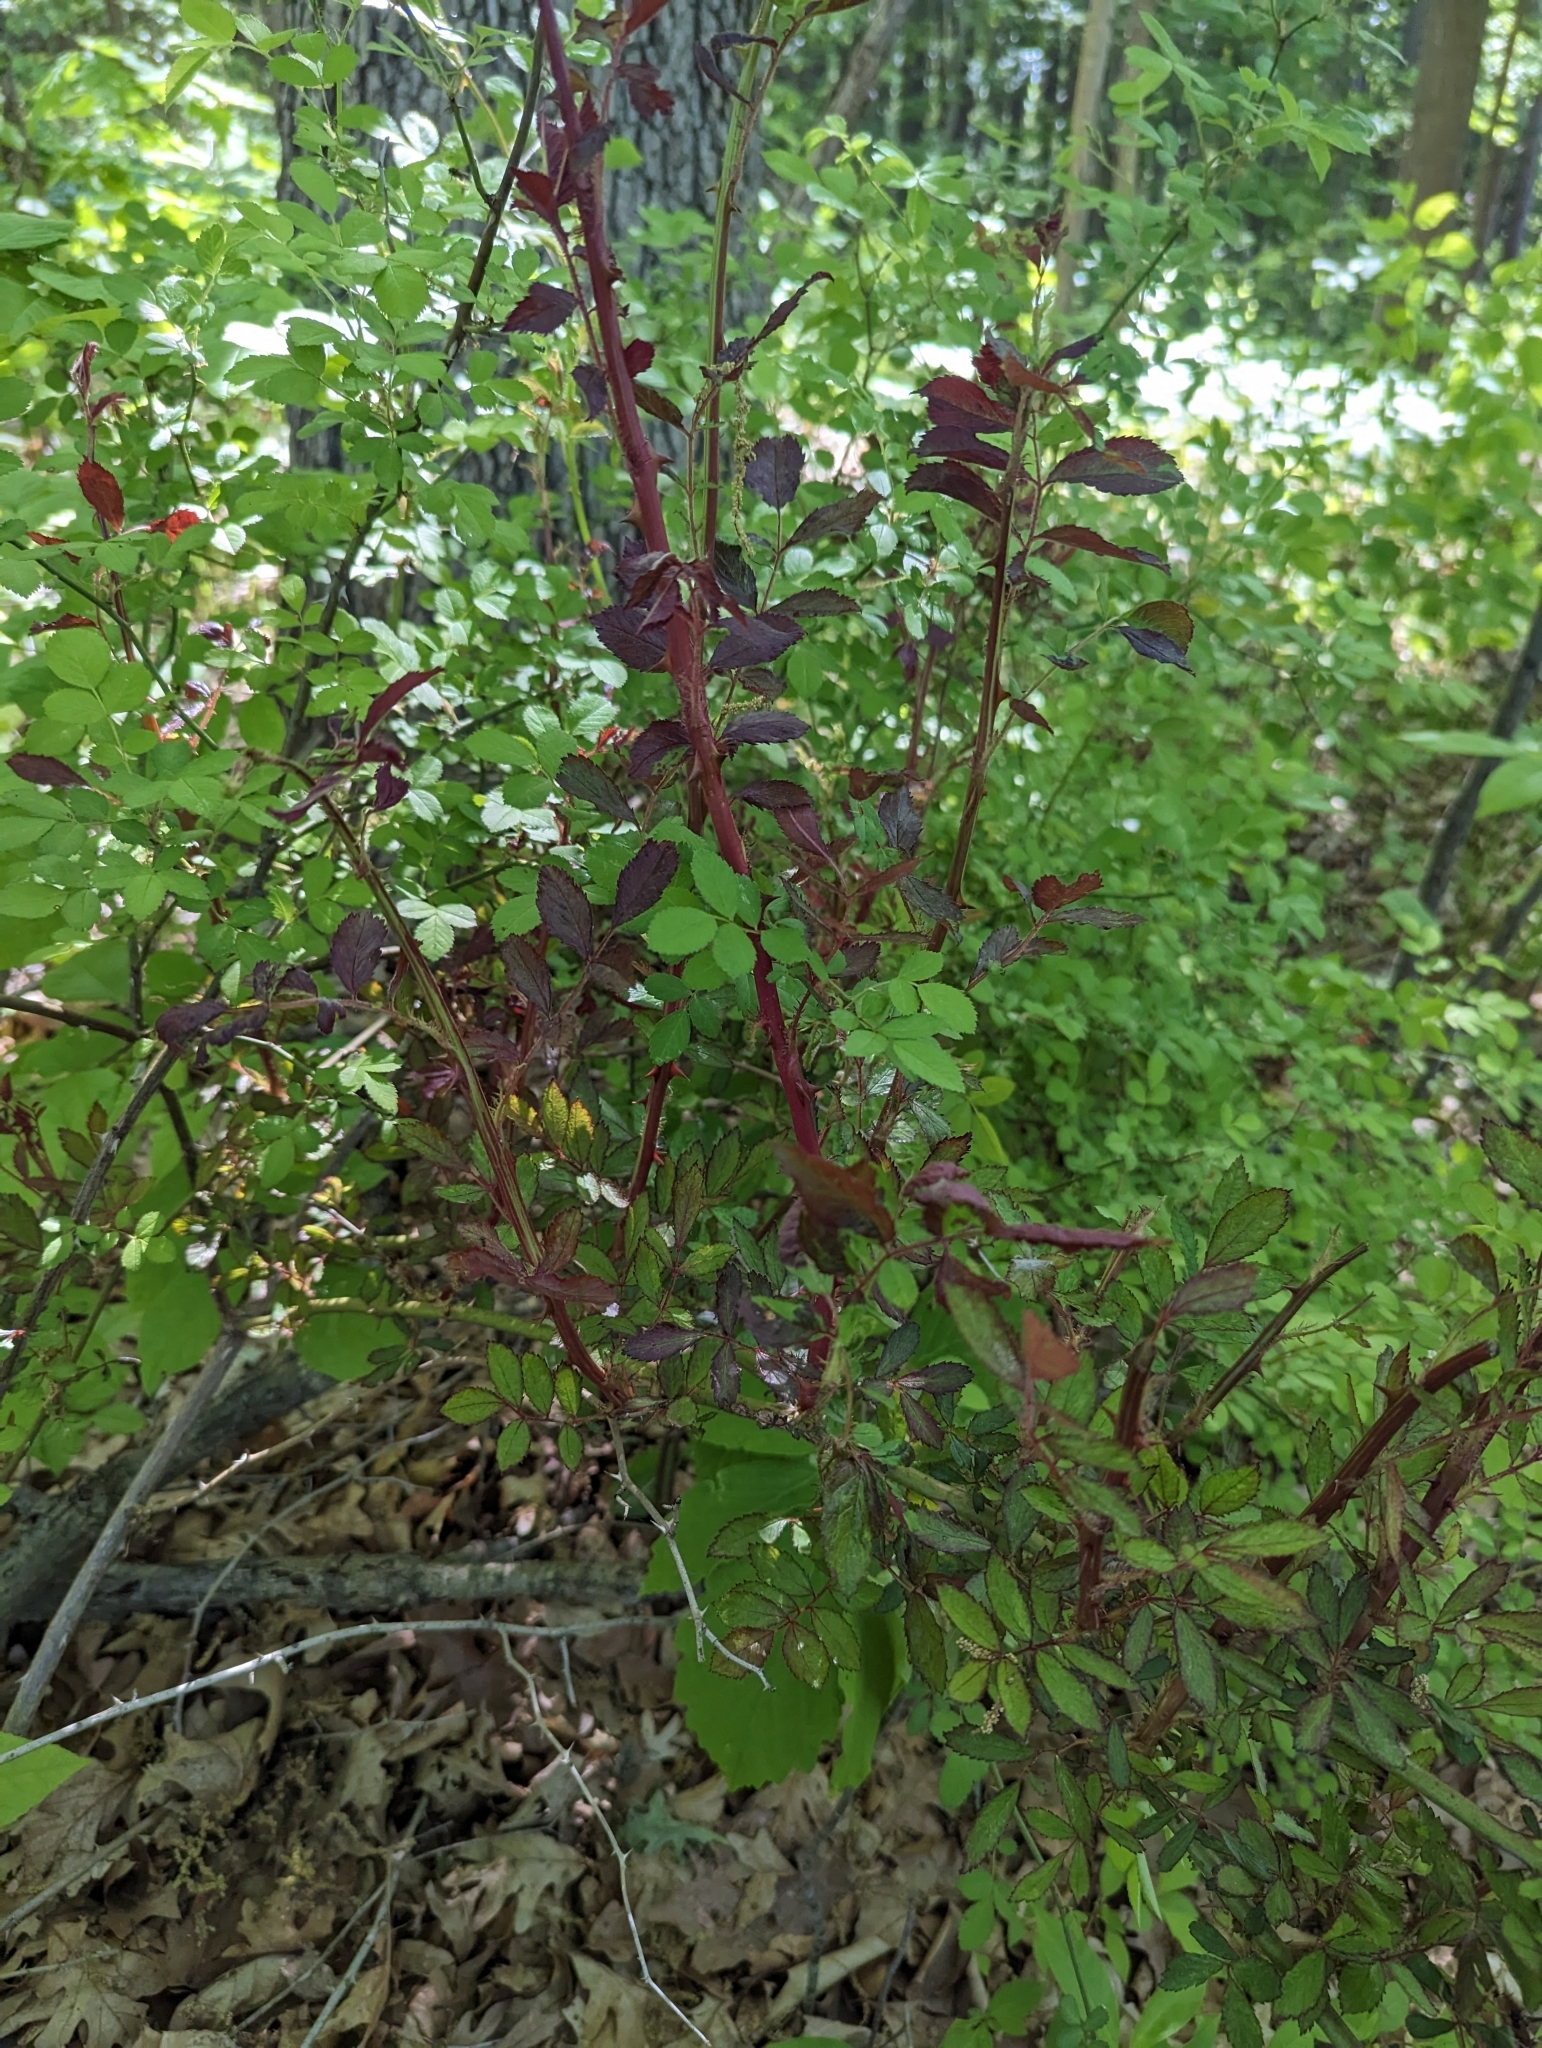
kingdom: Plantae
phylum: Tracheophyta
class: Magnoliopsida
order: Rosales
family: Rosaceae
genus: Rosa
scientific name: Rosa multiflora
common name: Multiflora rose
